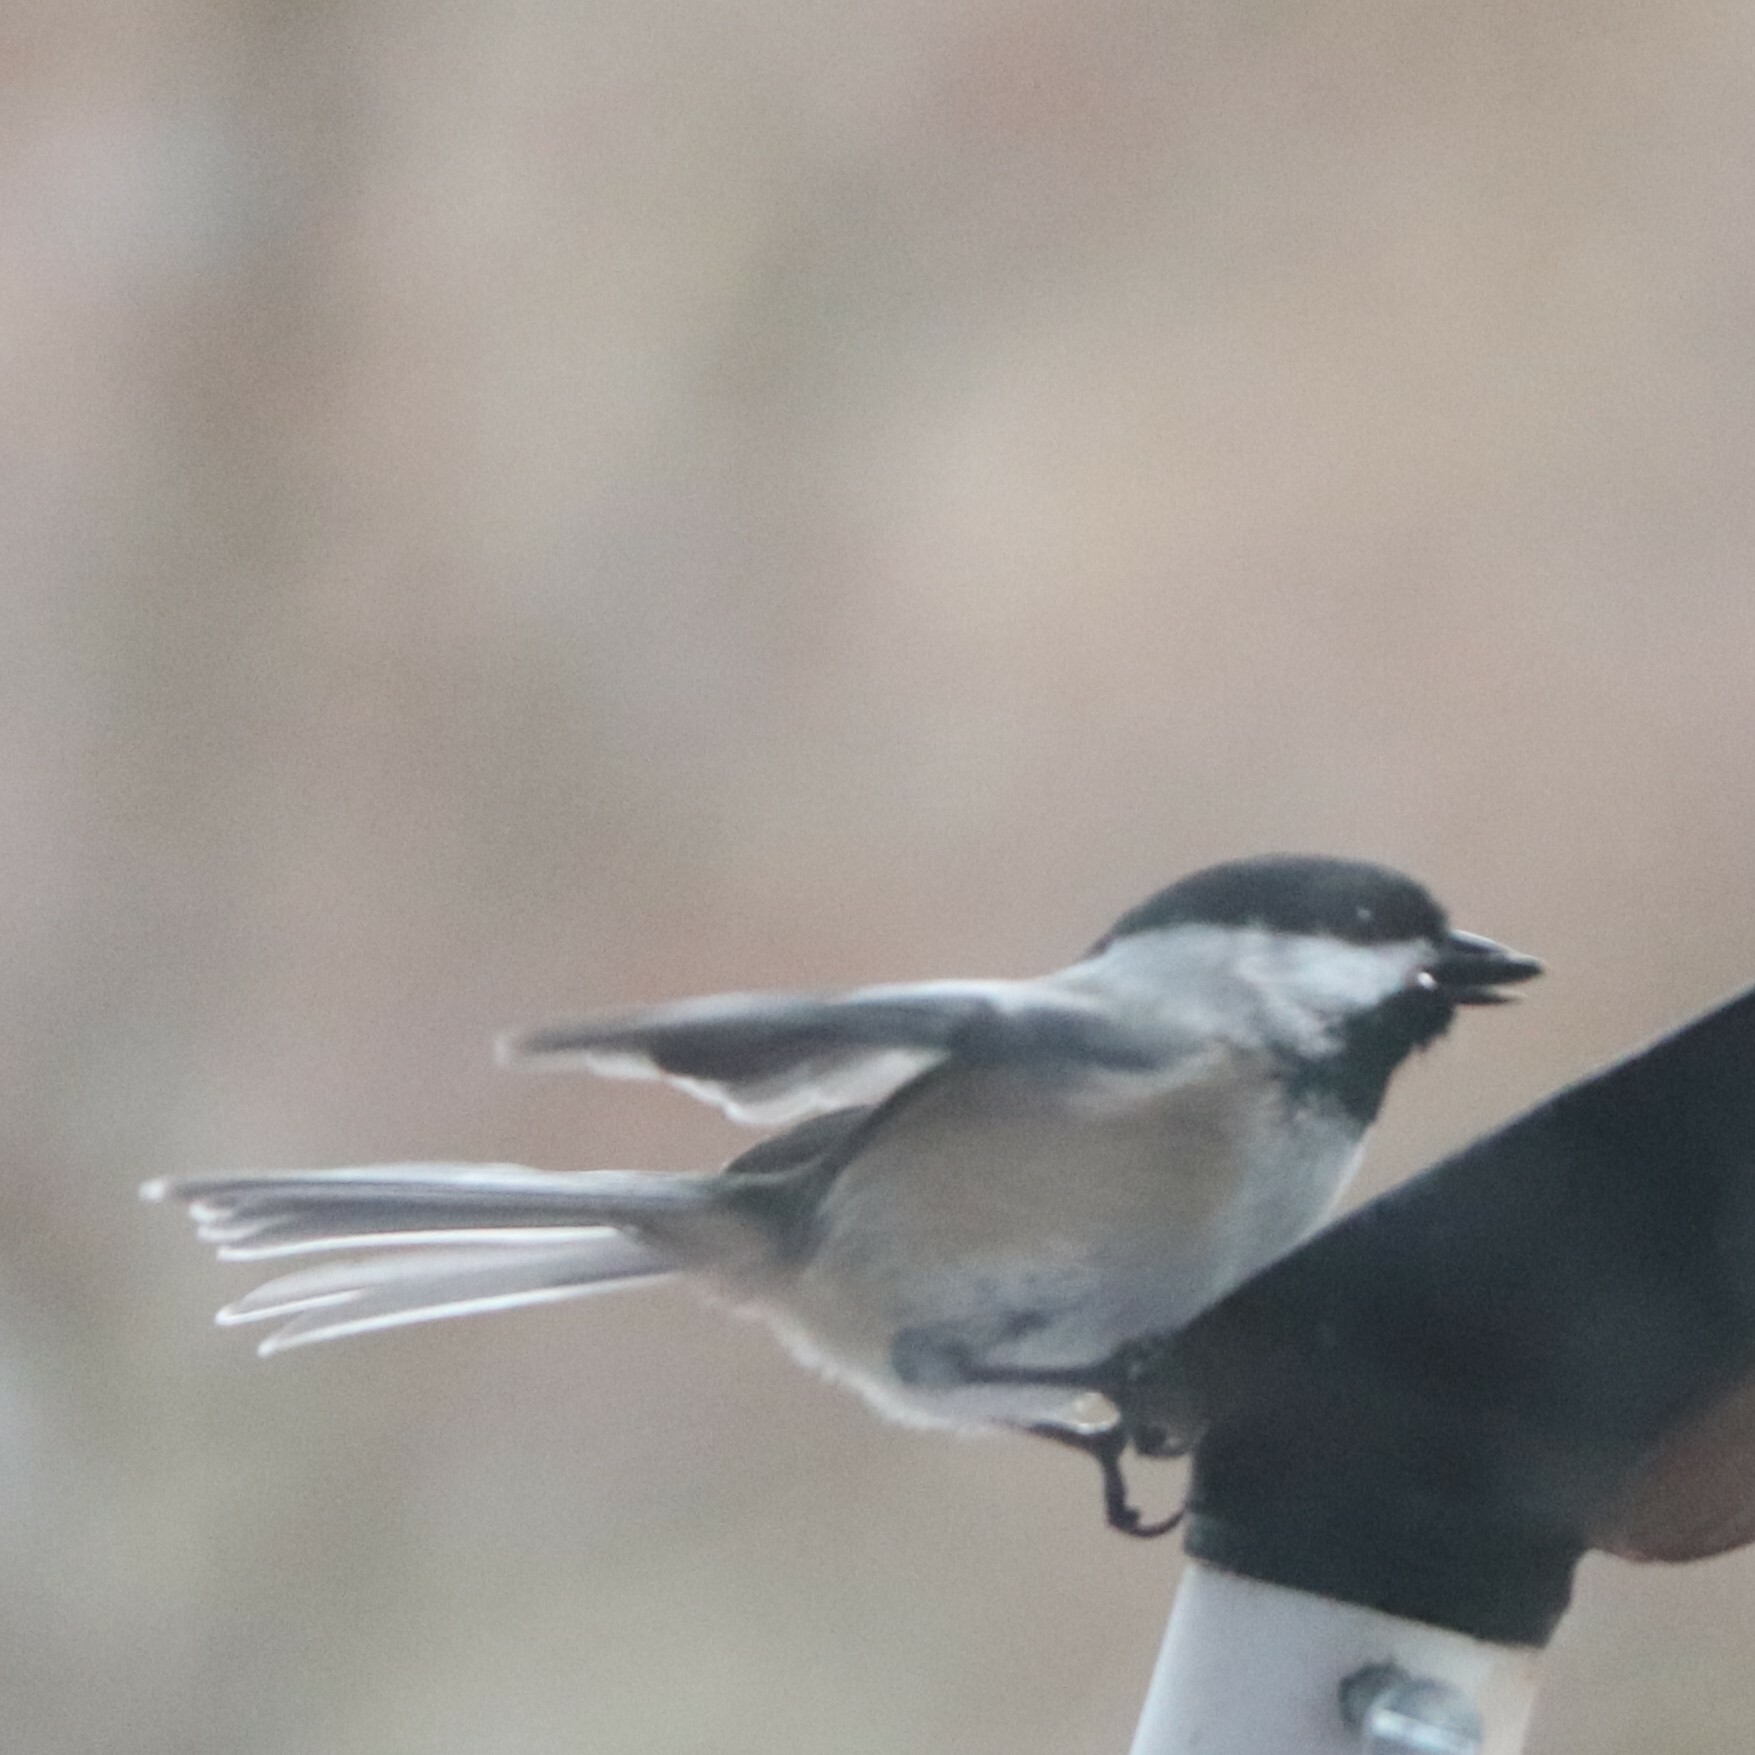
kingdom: Animalia
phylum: Chordata
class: Aves
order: Passeriformes
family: Paridae
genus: Poecile
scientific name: Poecile atricapillus
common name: Black-capped chickadee
